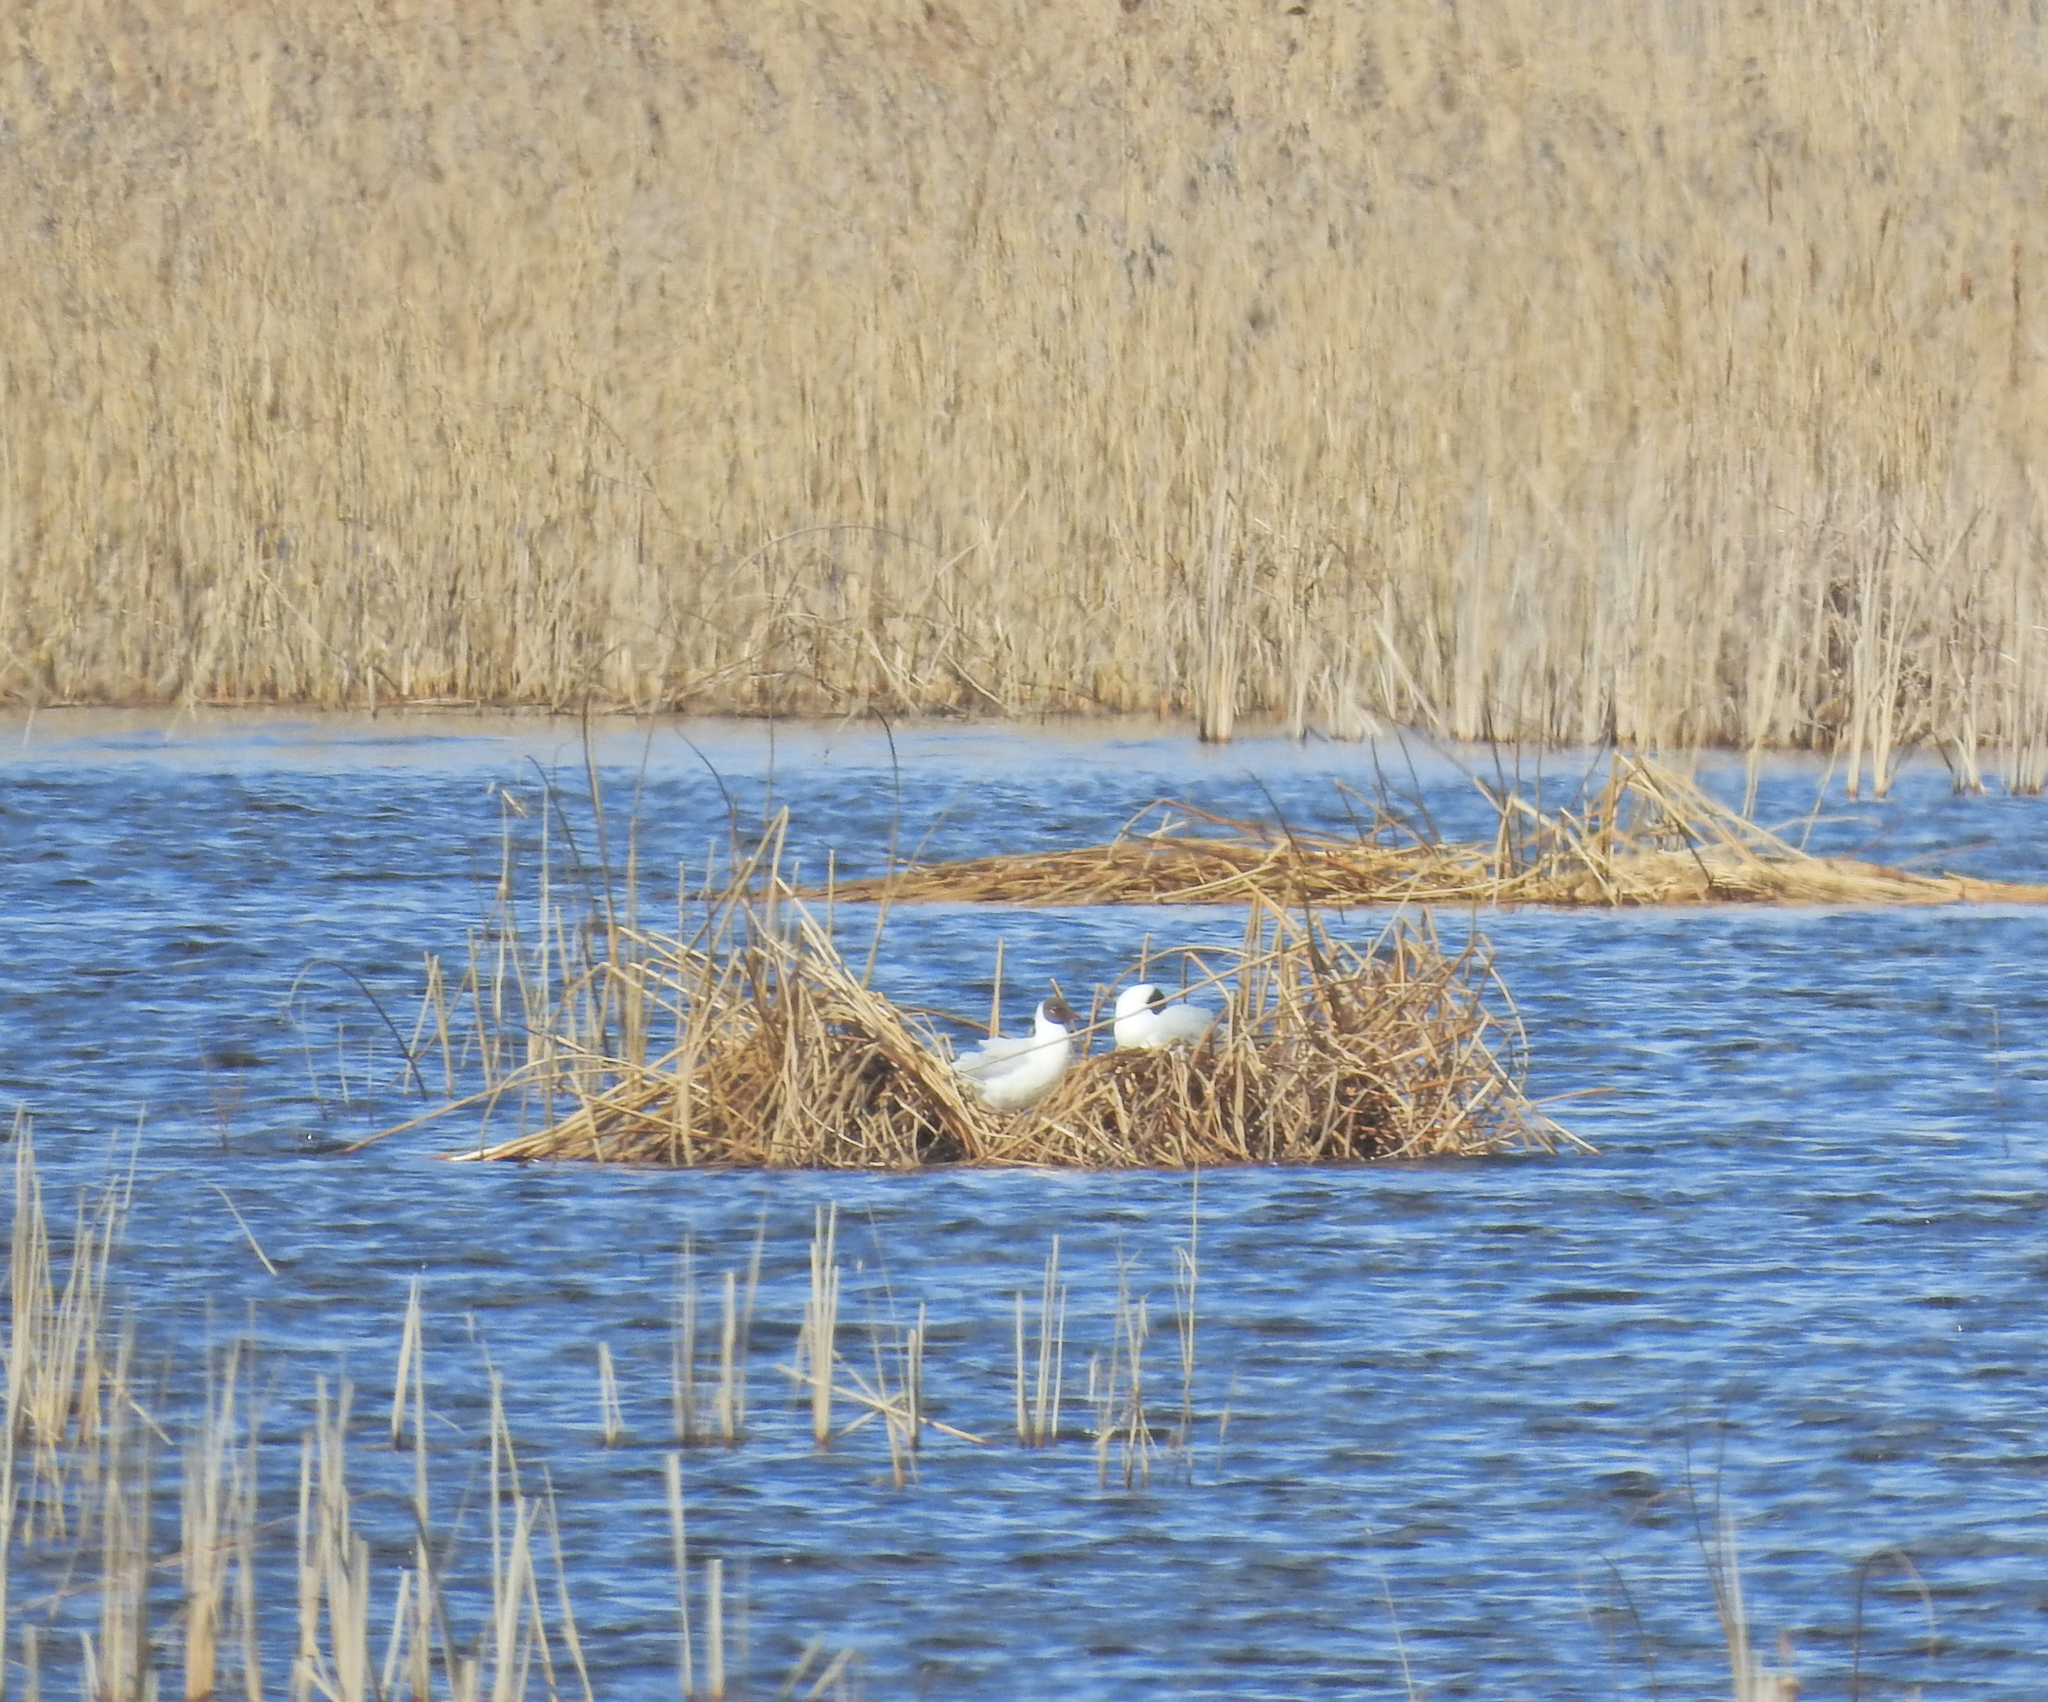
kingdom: Animalia
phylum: Chordata
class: Aves
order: Charadriiformes
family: Laridae
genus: Chroicocephalus
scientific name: Chroicocephalus ridibundus
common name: Black-headed gull
